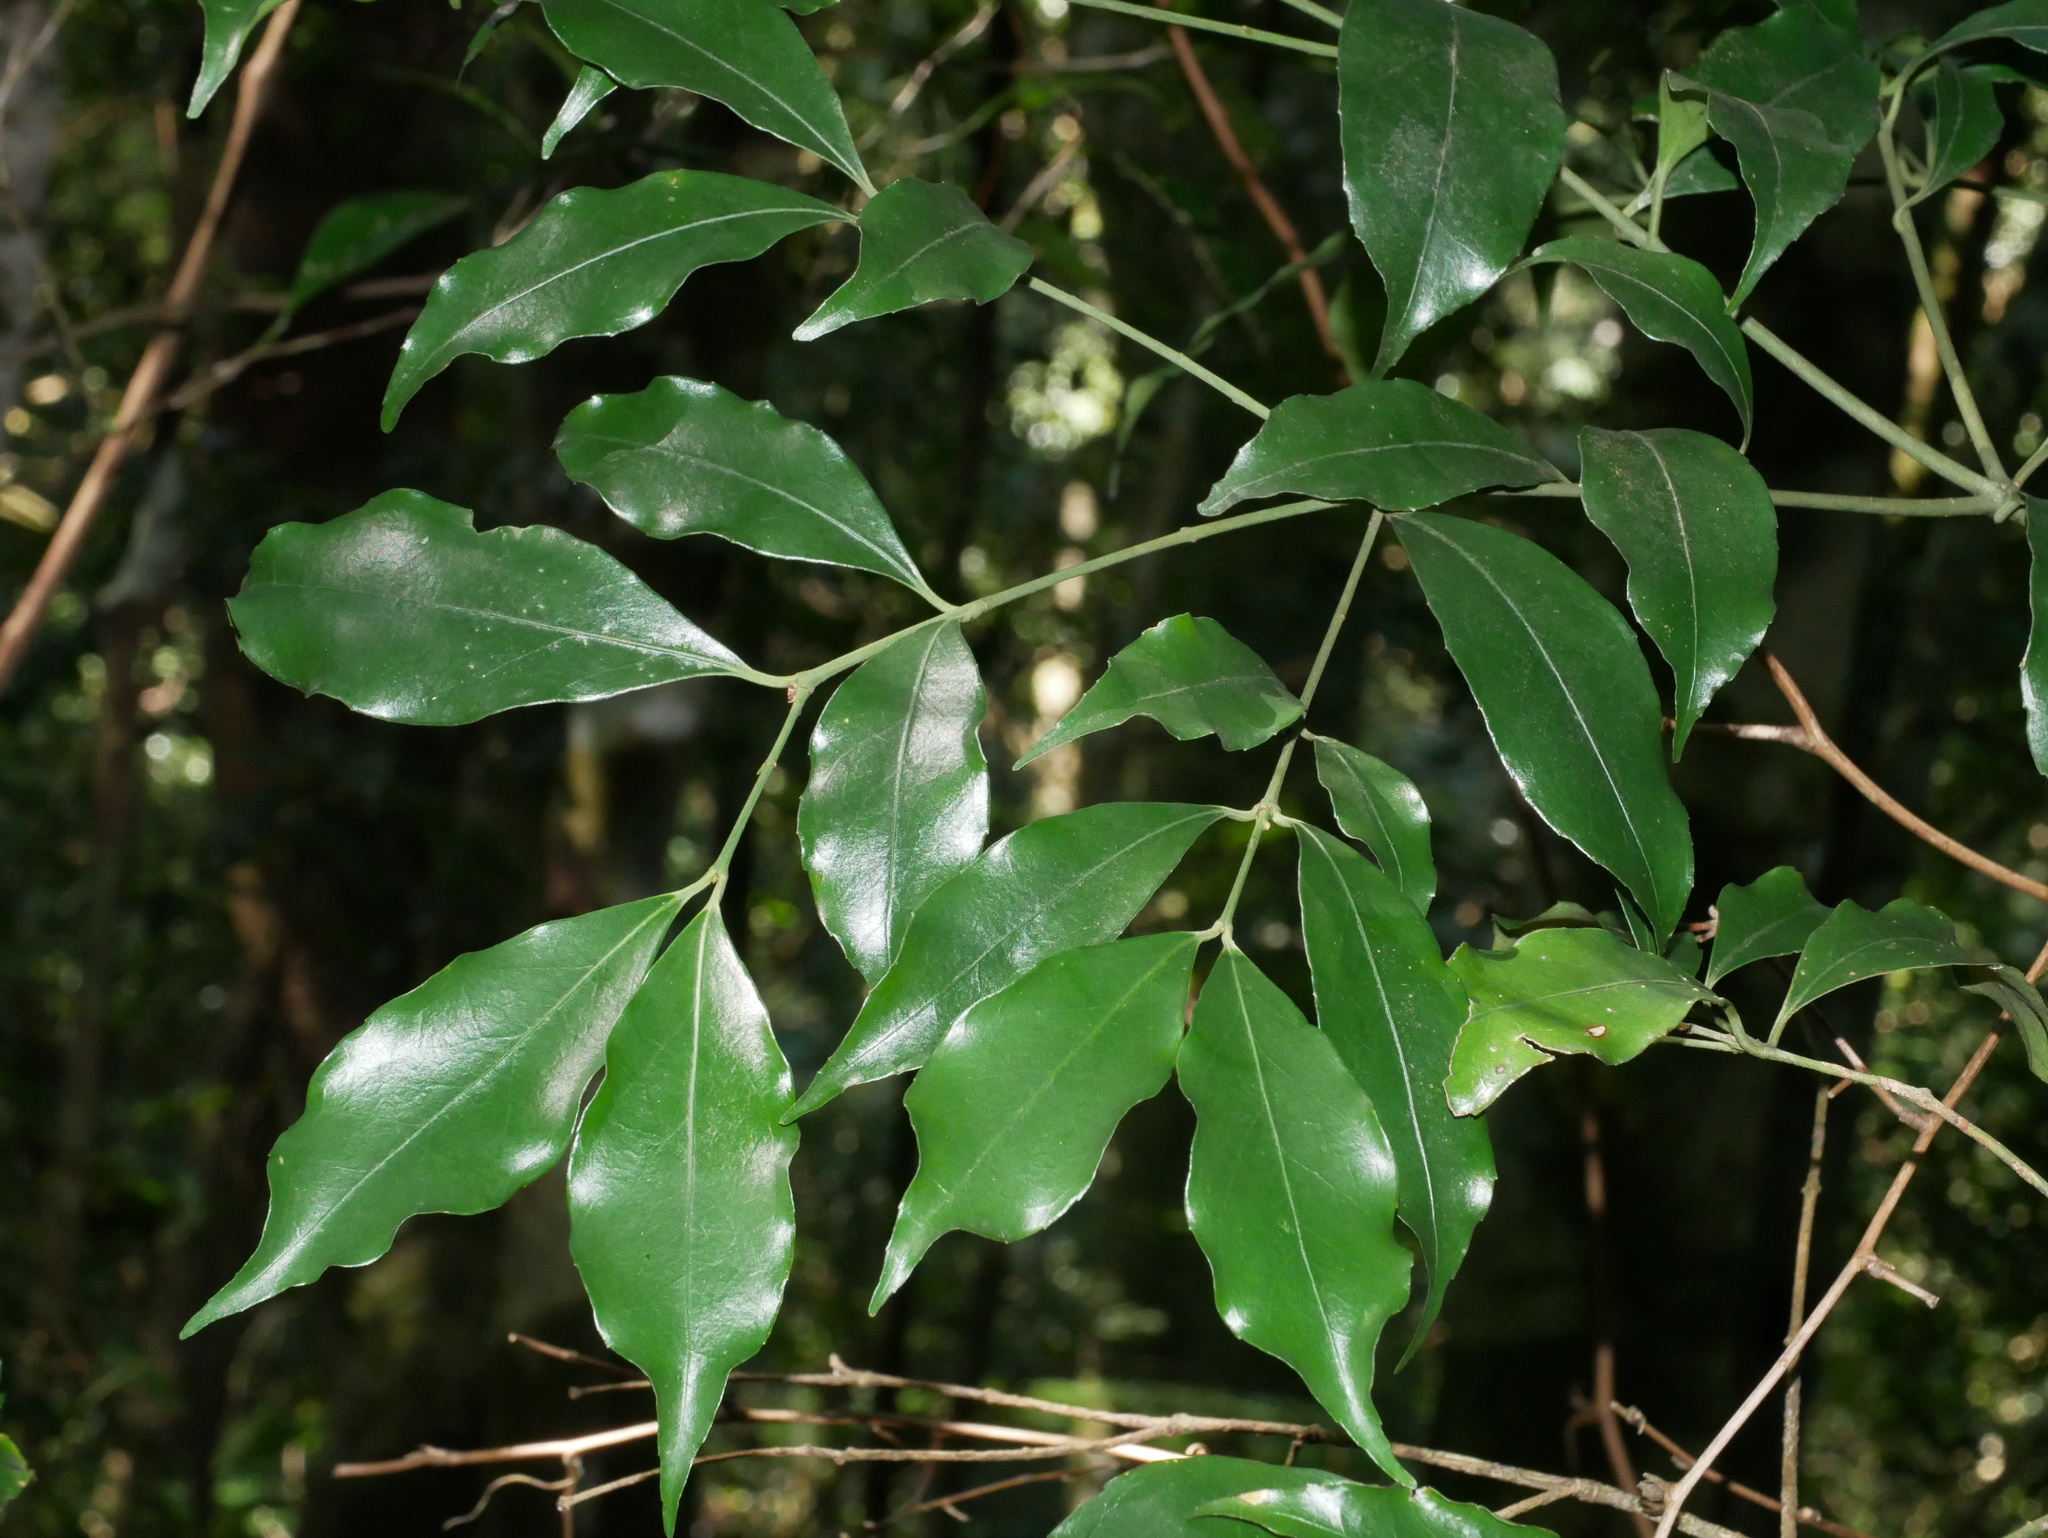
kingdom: Plantae
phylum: Tracheophyta
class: Magnoliopsida
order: Celastrales
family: Celastraceae
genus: Euonymus
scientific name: Euonymus laxiflorus
